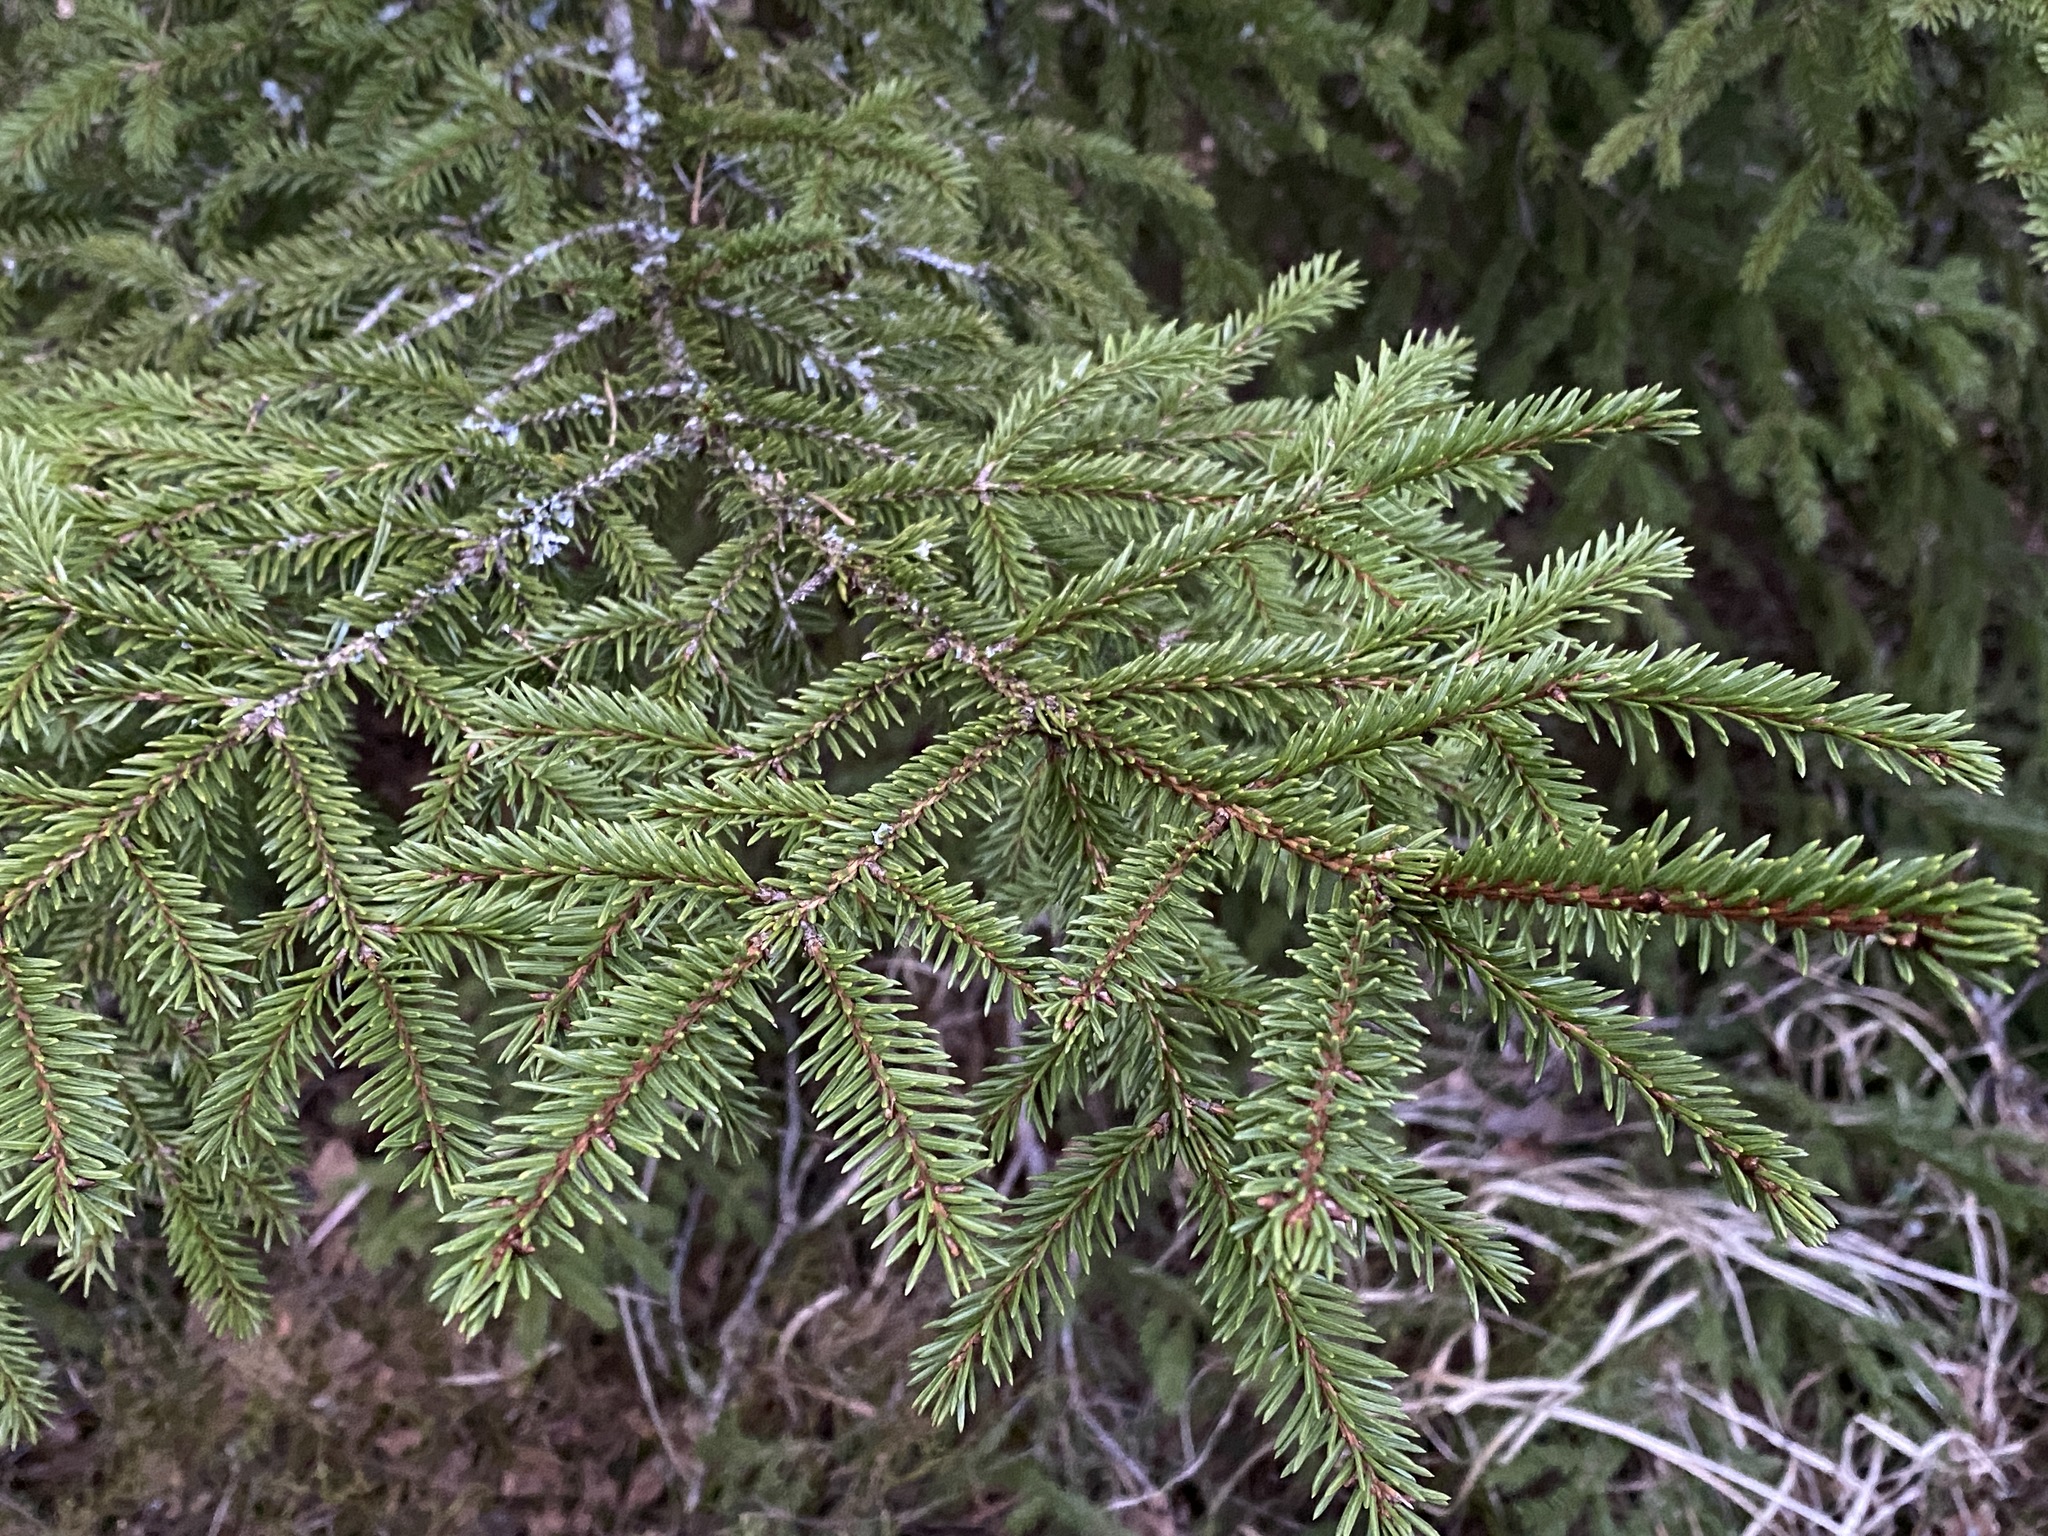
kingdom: Plantae
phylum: Tracheophyta
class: Pinopsida
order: Pinales
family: Pinaceae
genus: Picea
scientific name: Picea abies
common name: Norway spruce
